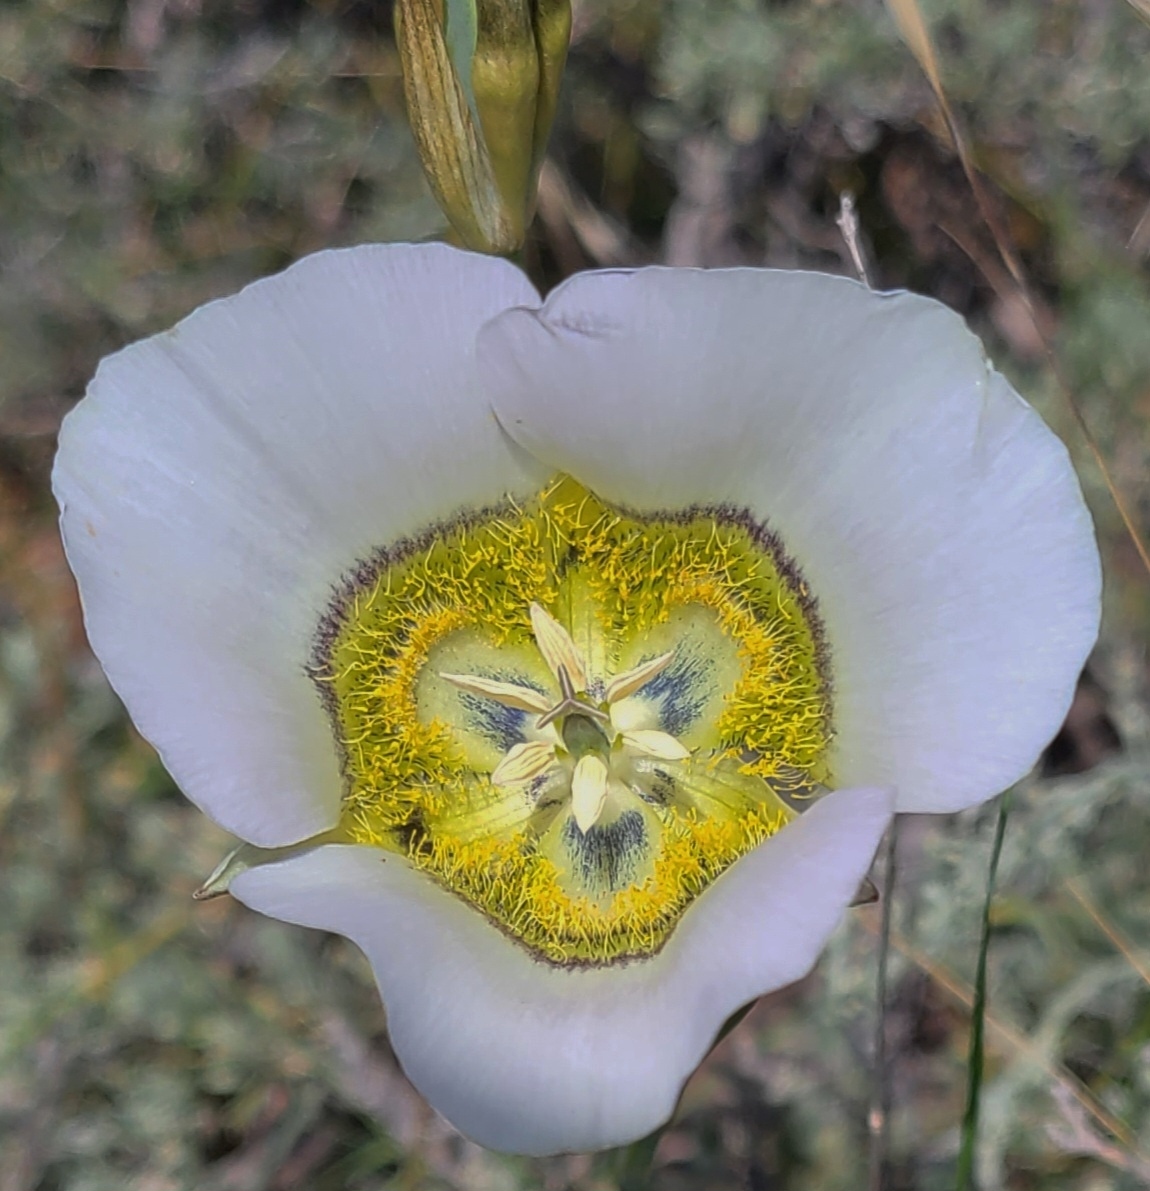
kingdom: Plantae
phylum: Tracheophyta
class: Liliopsida
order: Liliales
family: Liliaceae
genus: Calochortus
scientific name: Calochortus gunnisonii
